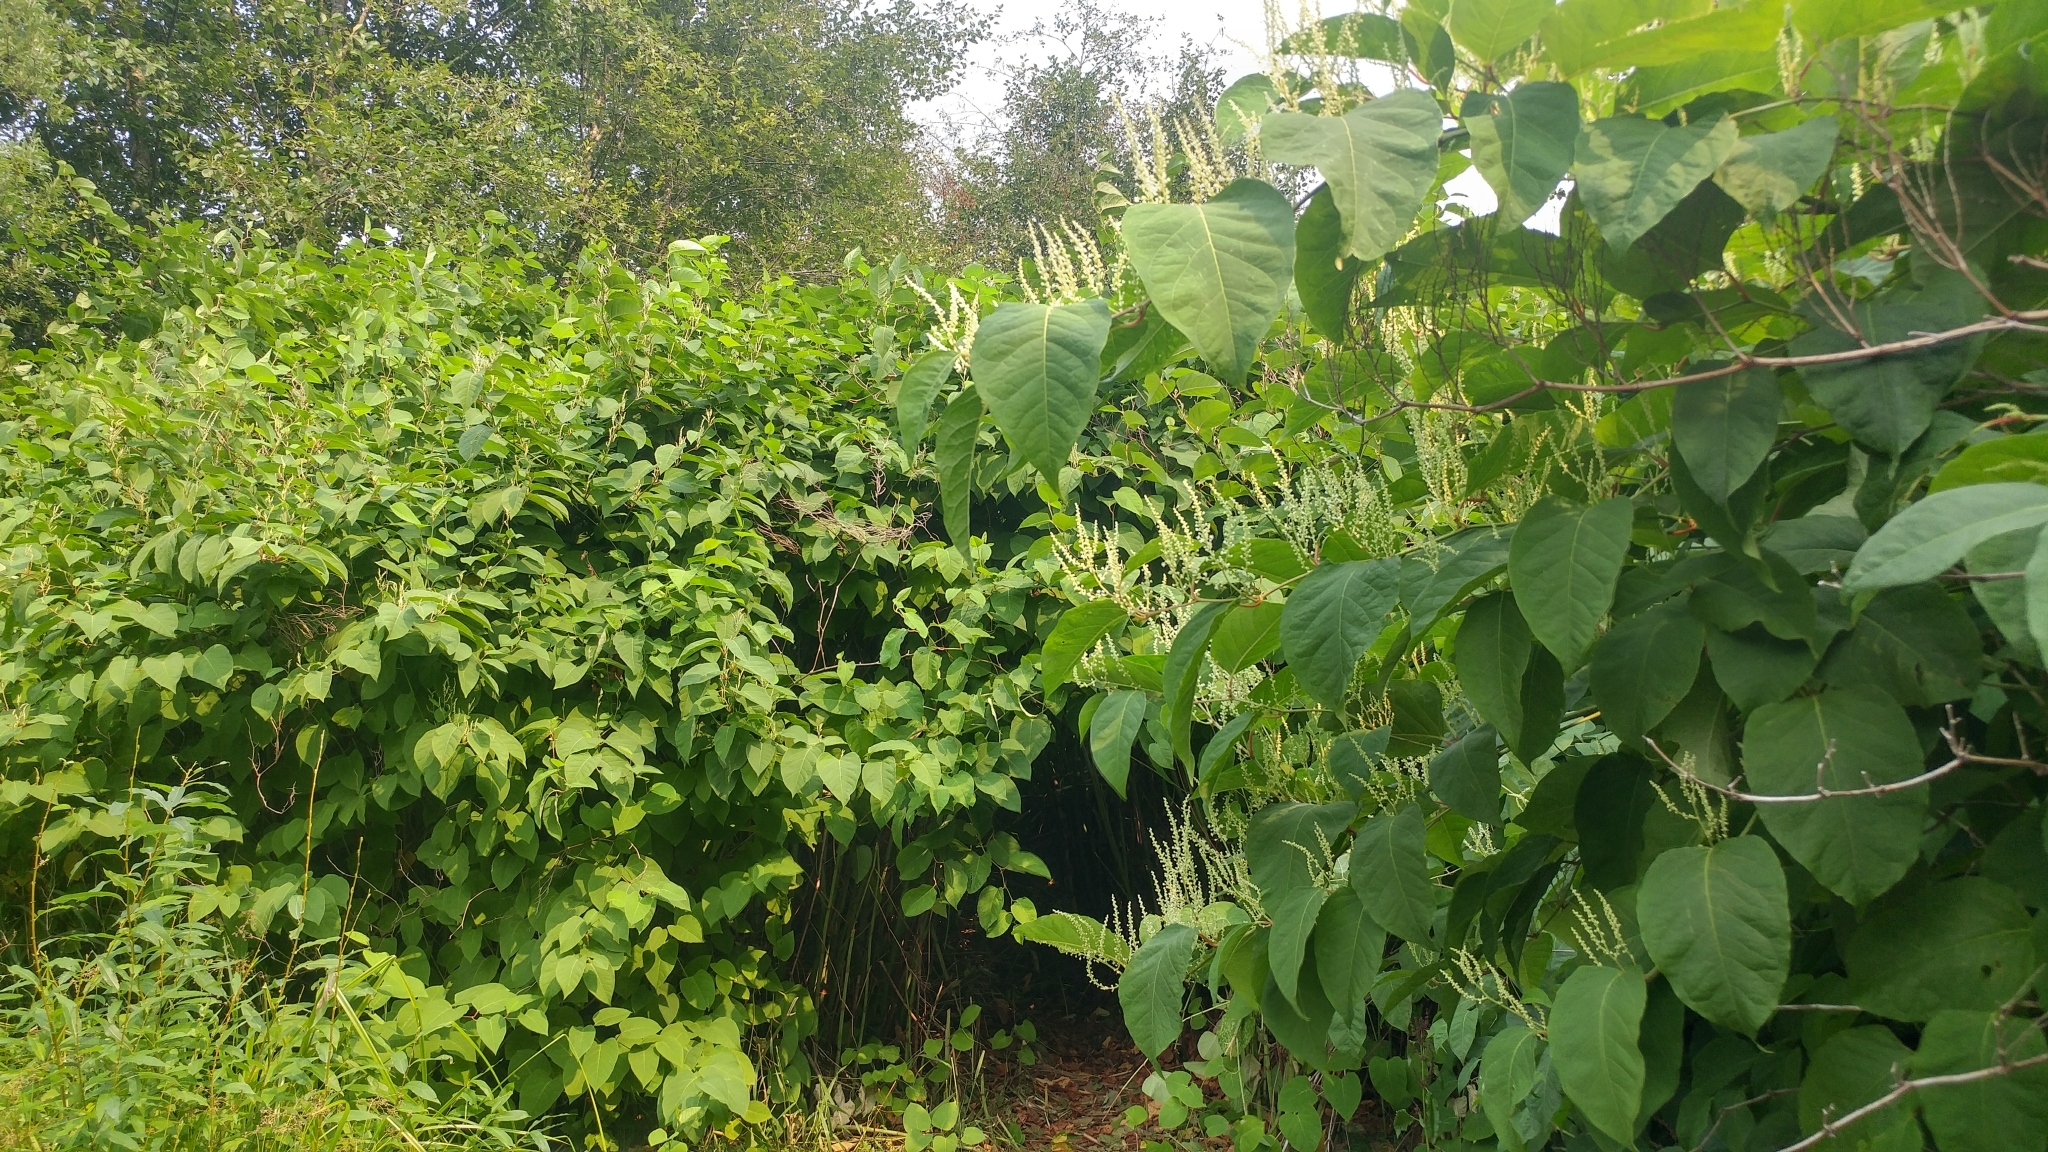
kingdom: Plantae
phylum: Tracheophyta
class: Magnoliopsida
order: Caryophyllales
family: Polygonaceae
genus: Reynoutria
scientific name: Reynoutria japonica
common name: Japanese knotweed
